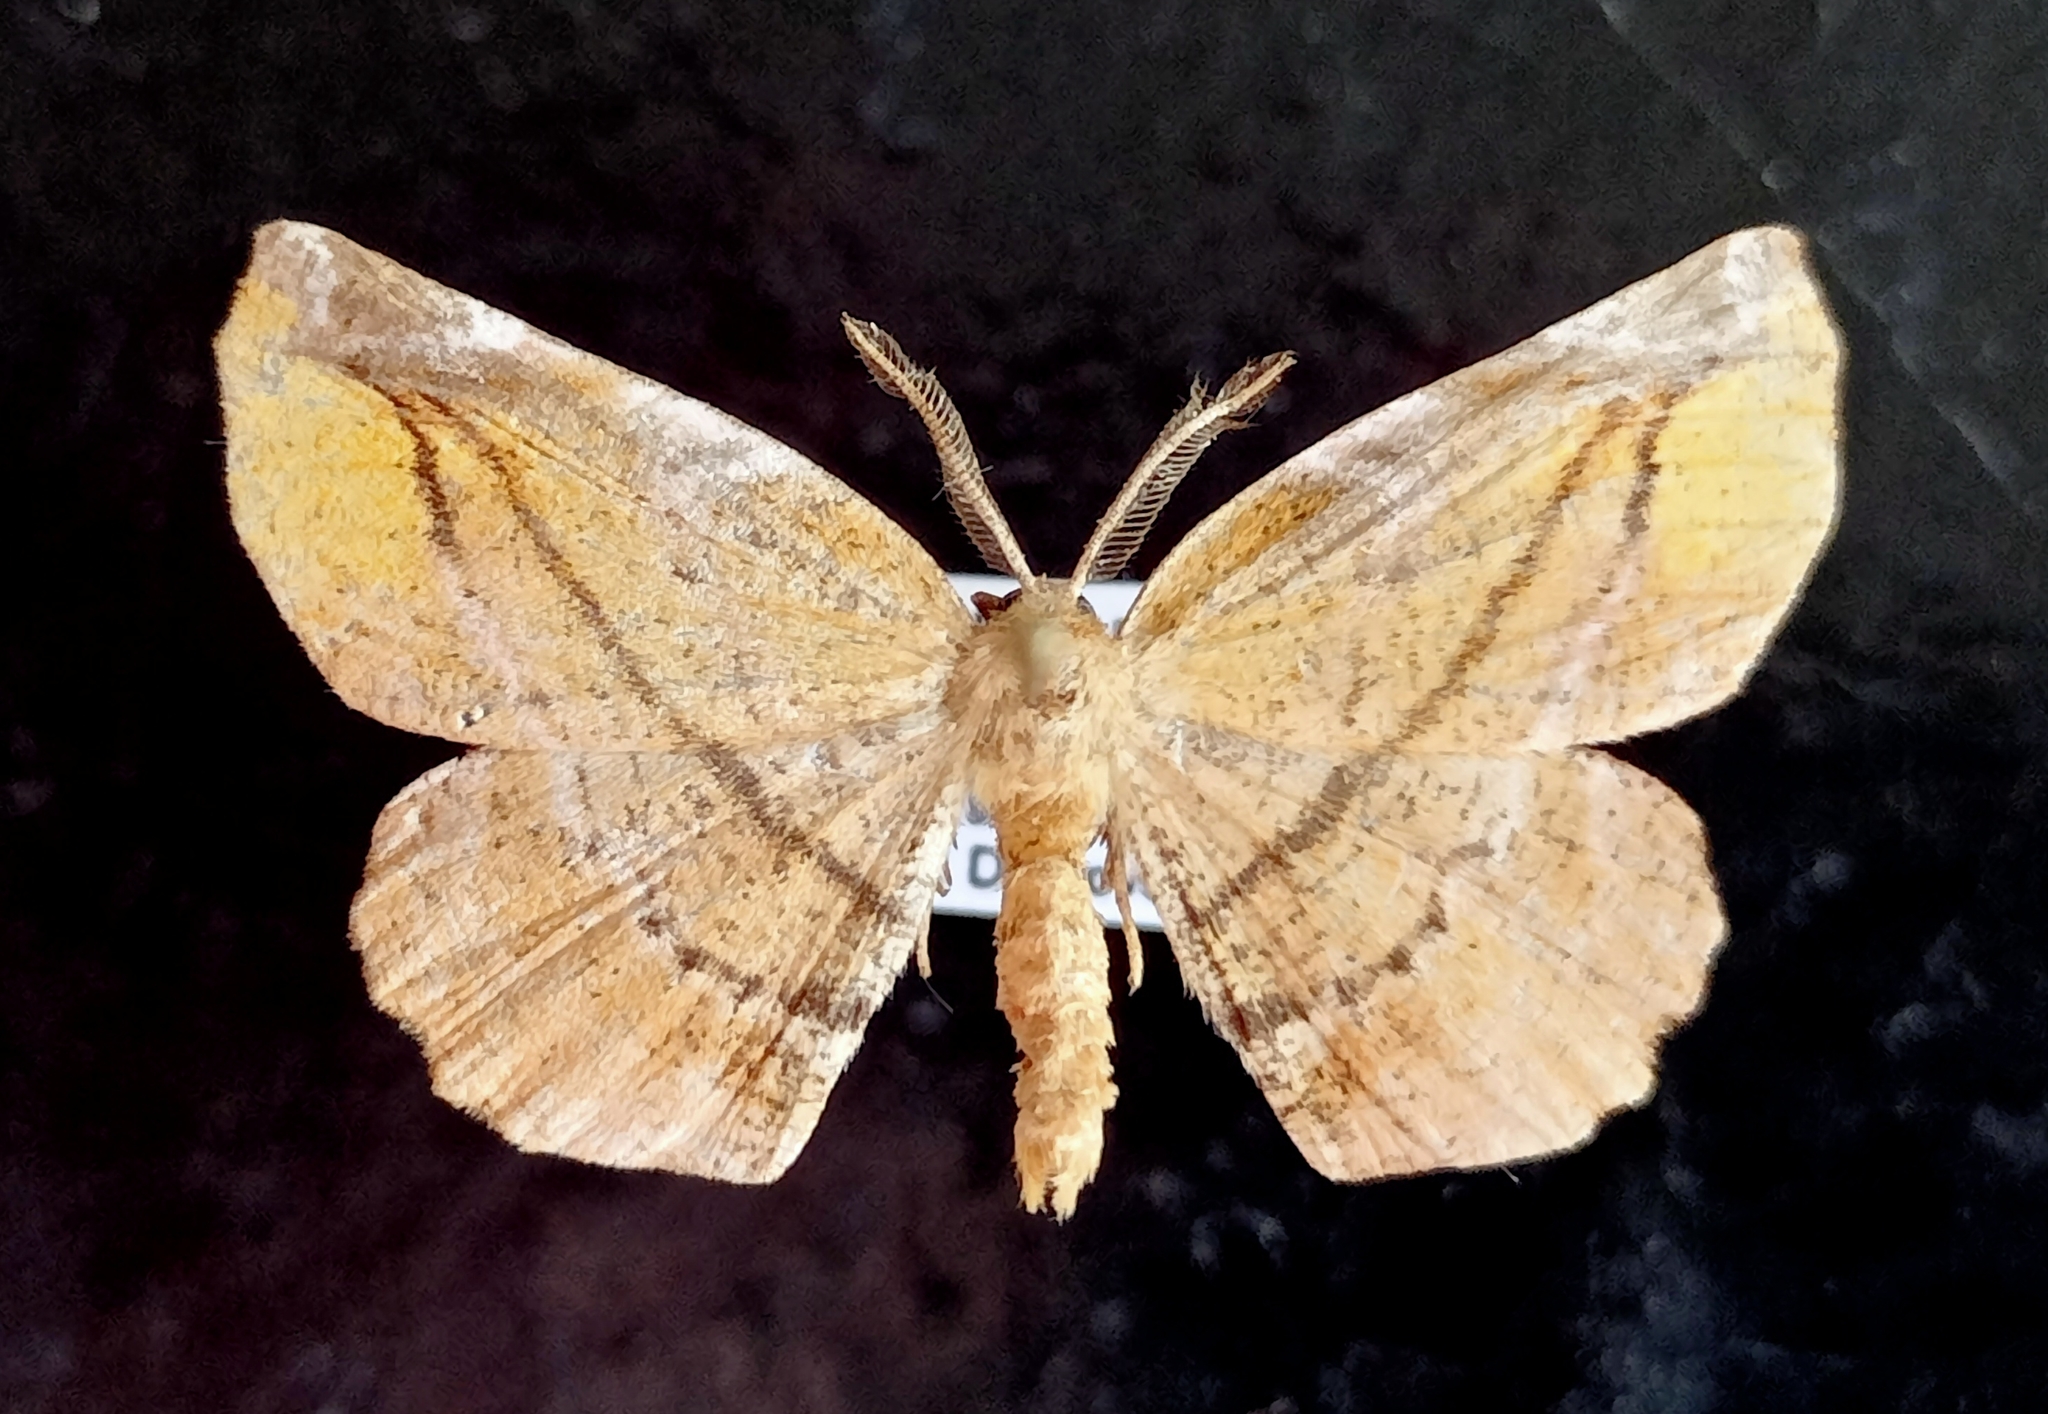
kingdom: Animalia
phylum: Arthropoda
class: Insecta
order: Lepidoptera
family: Geometridae
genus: Apeira
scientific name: Apeira syringaria
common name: Lilac beauty
